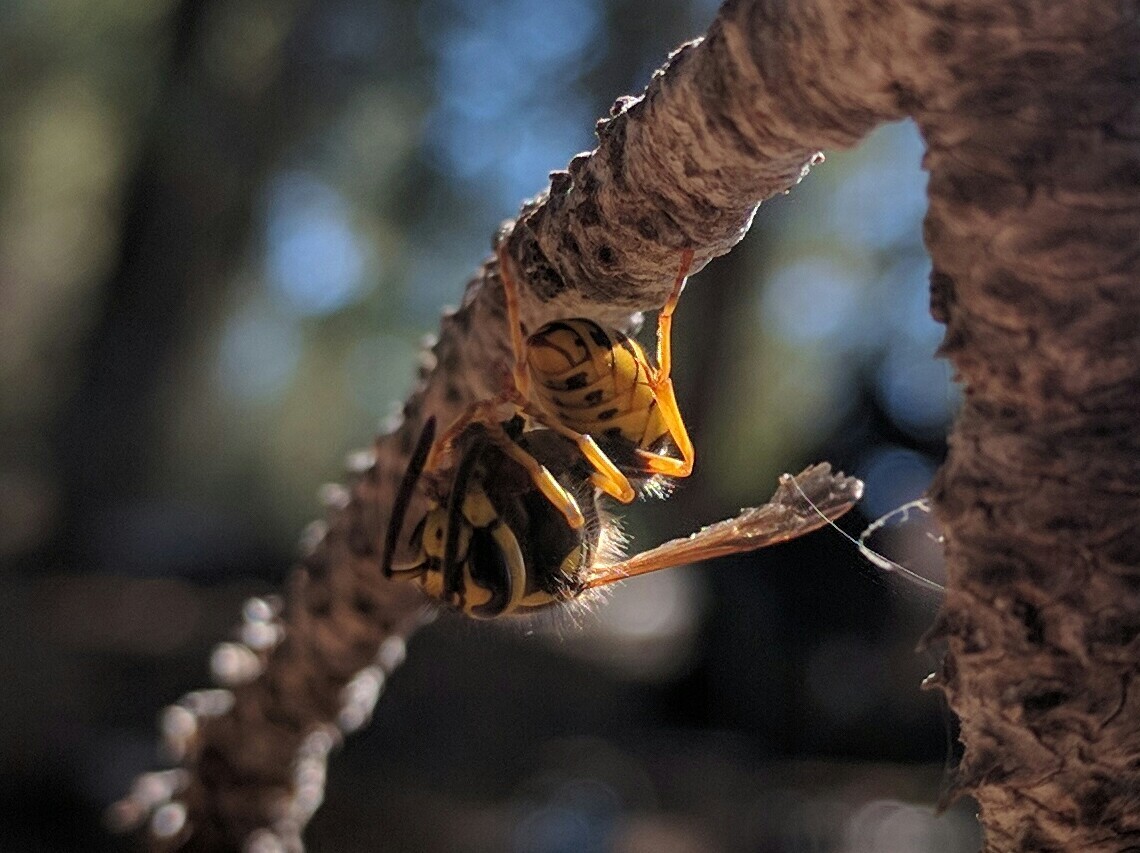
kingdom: Animalia
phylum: Arthropoda
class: Insecta
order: Hymenoptera
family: Vespidae
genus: Vespula
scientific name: Vespula pensylvanica
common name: Western yellowjacket
